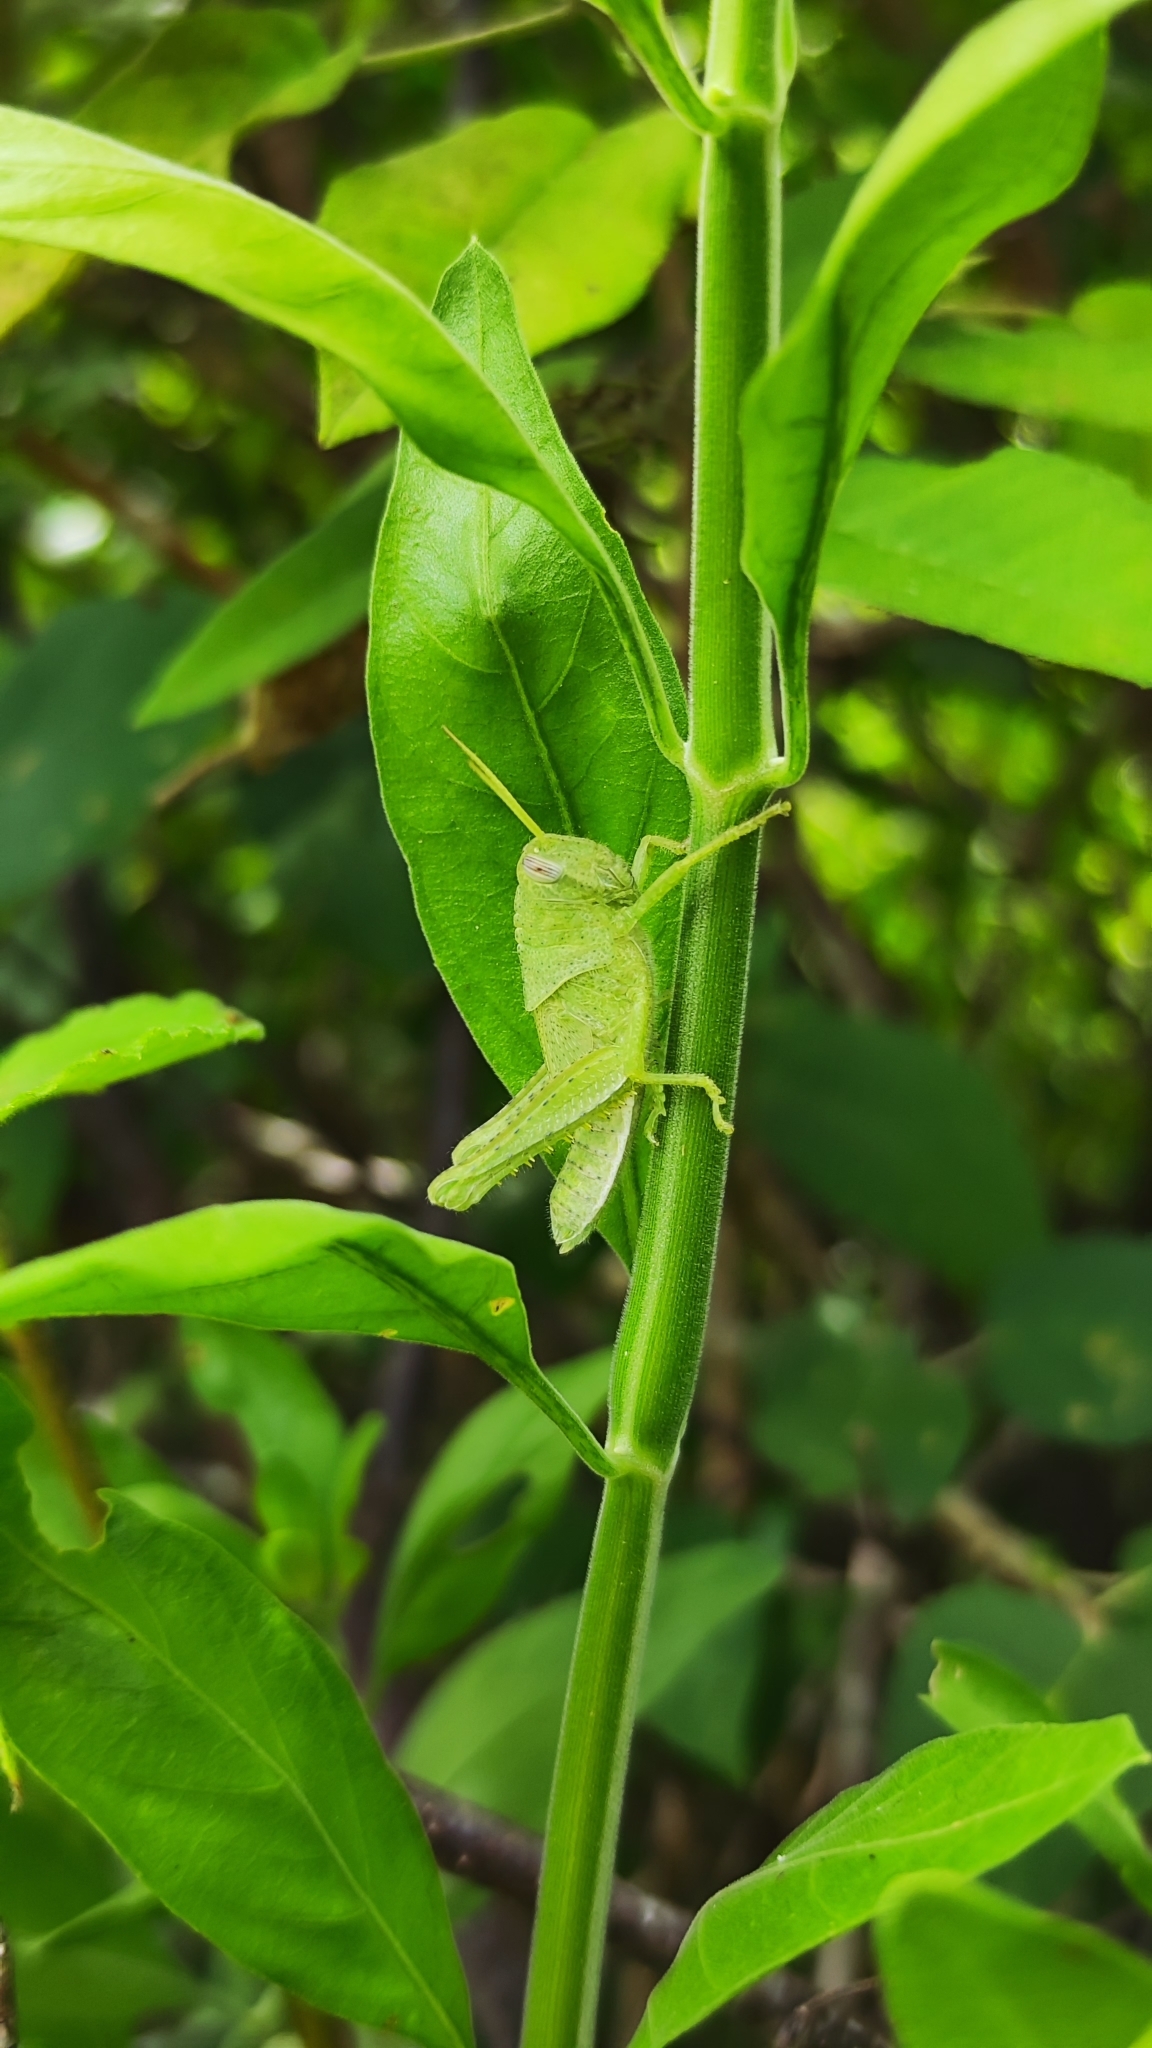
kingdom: Animalia
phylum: Arthropoda
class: Insecta
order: Orthoptera
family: Acrididae
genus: Schistocerca
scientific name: Schistocerca flavofasciata
